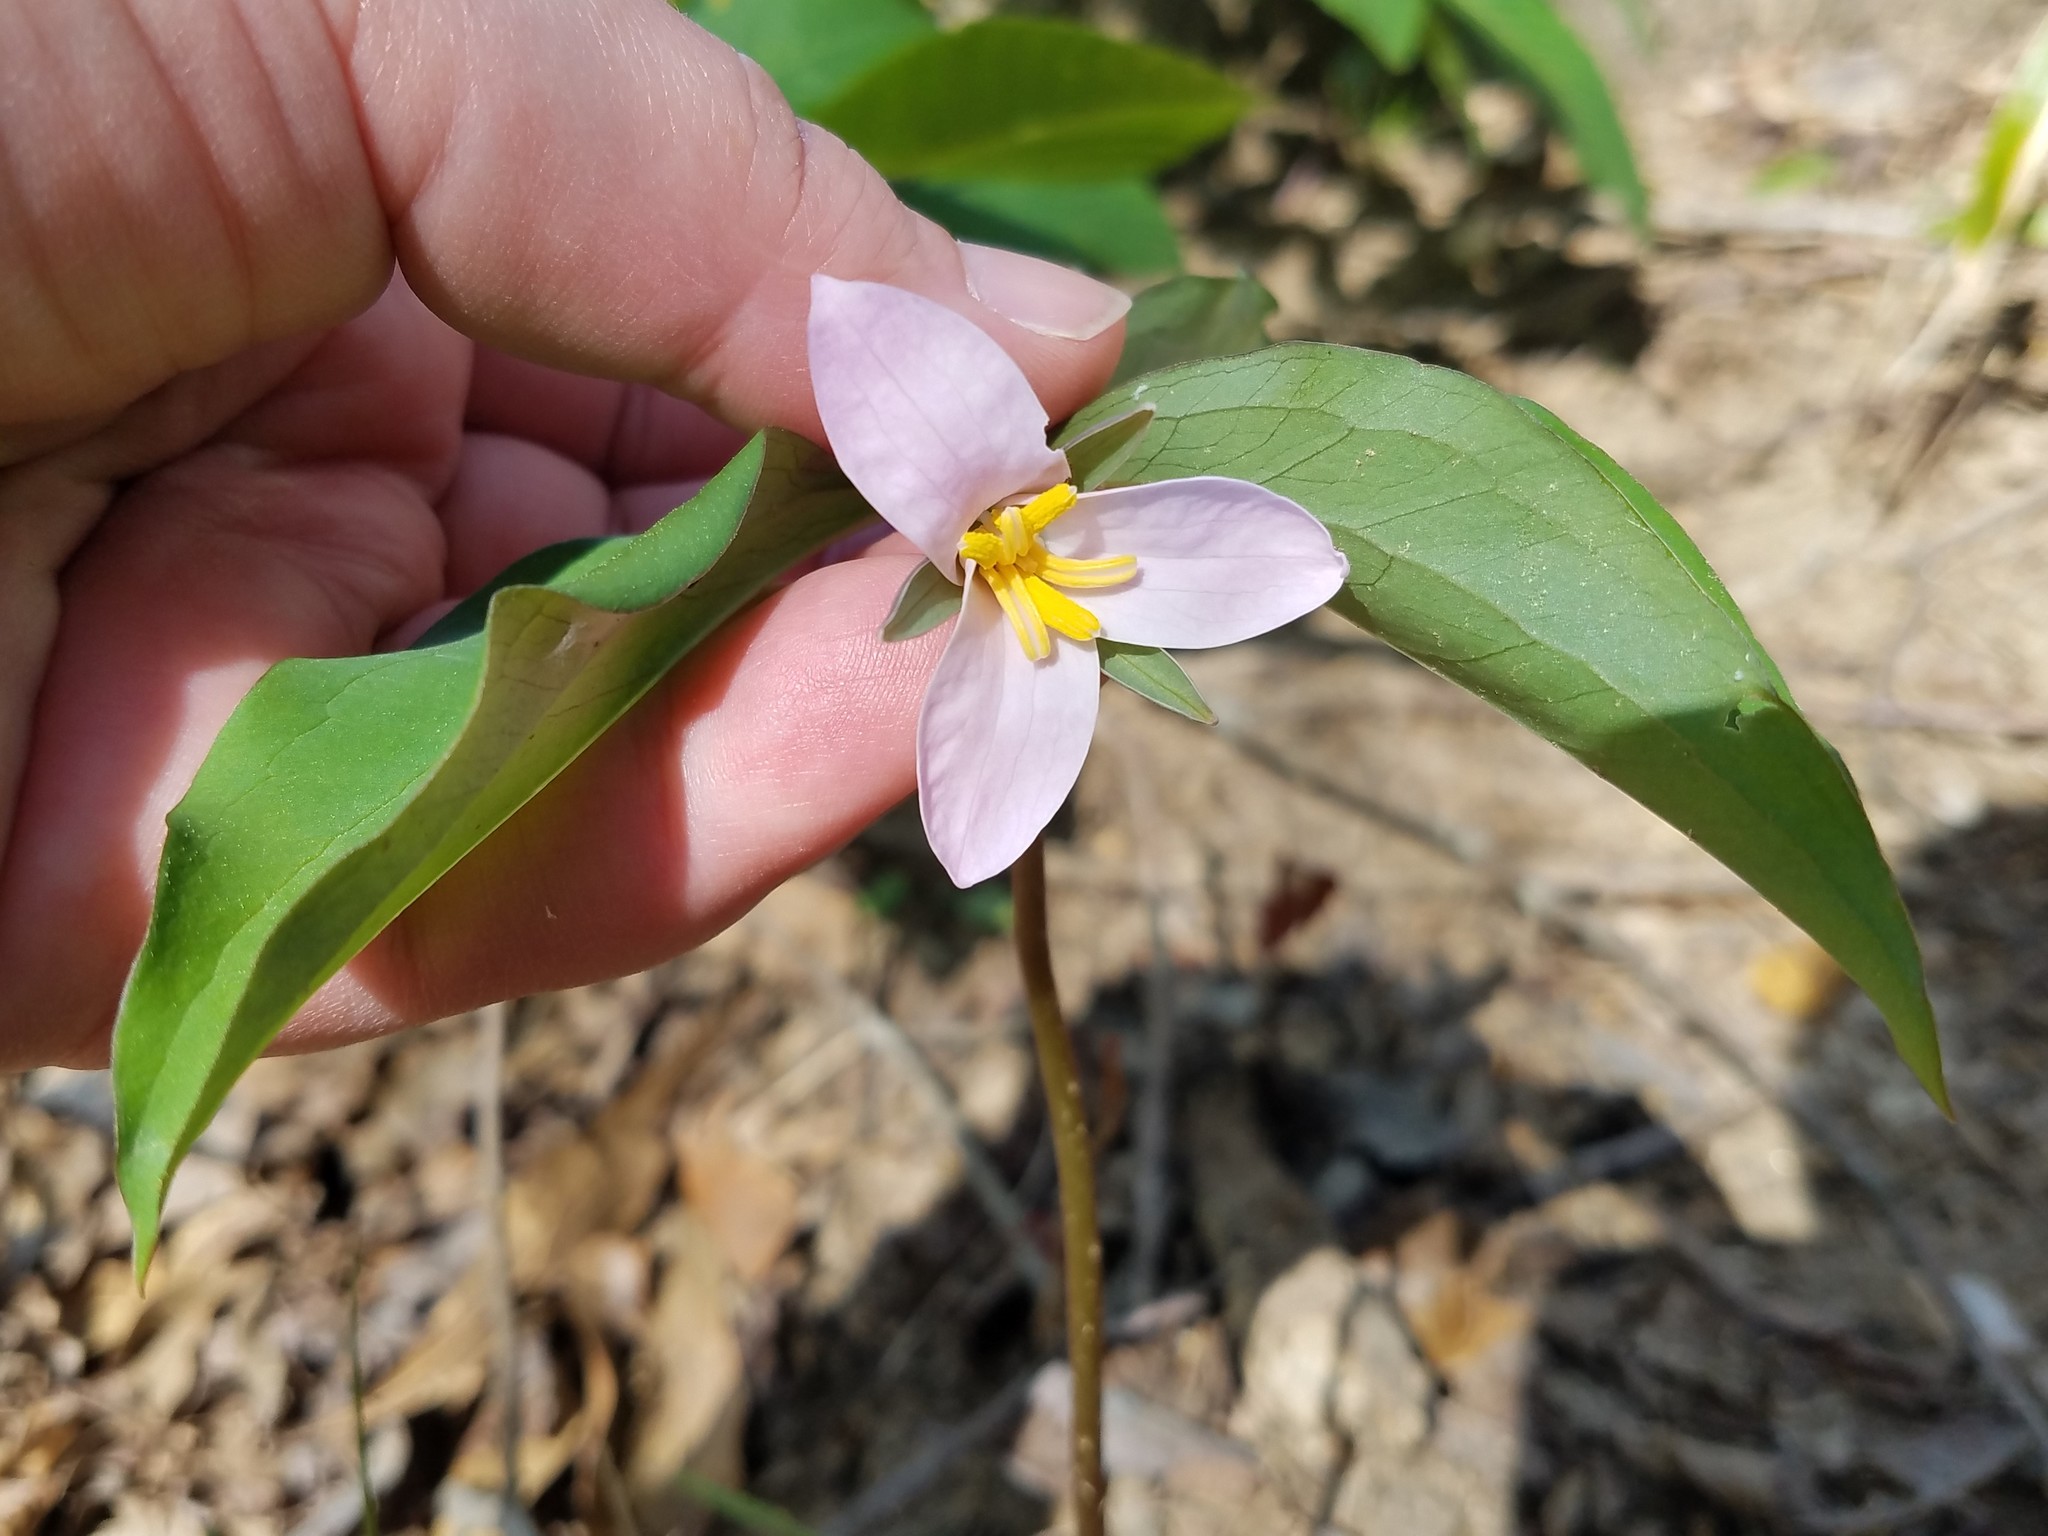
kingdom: Plantae
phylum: Tracheophyta
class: Liliopsida
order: Liliales
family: Melanthiaceae
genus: Trillium
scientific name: Trillium catesbaei
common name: Bashful trillium
